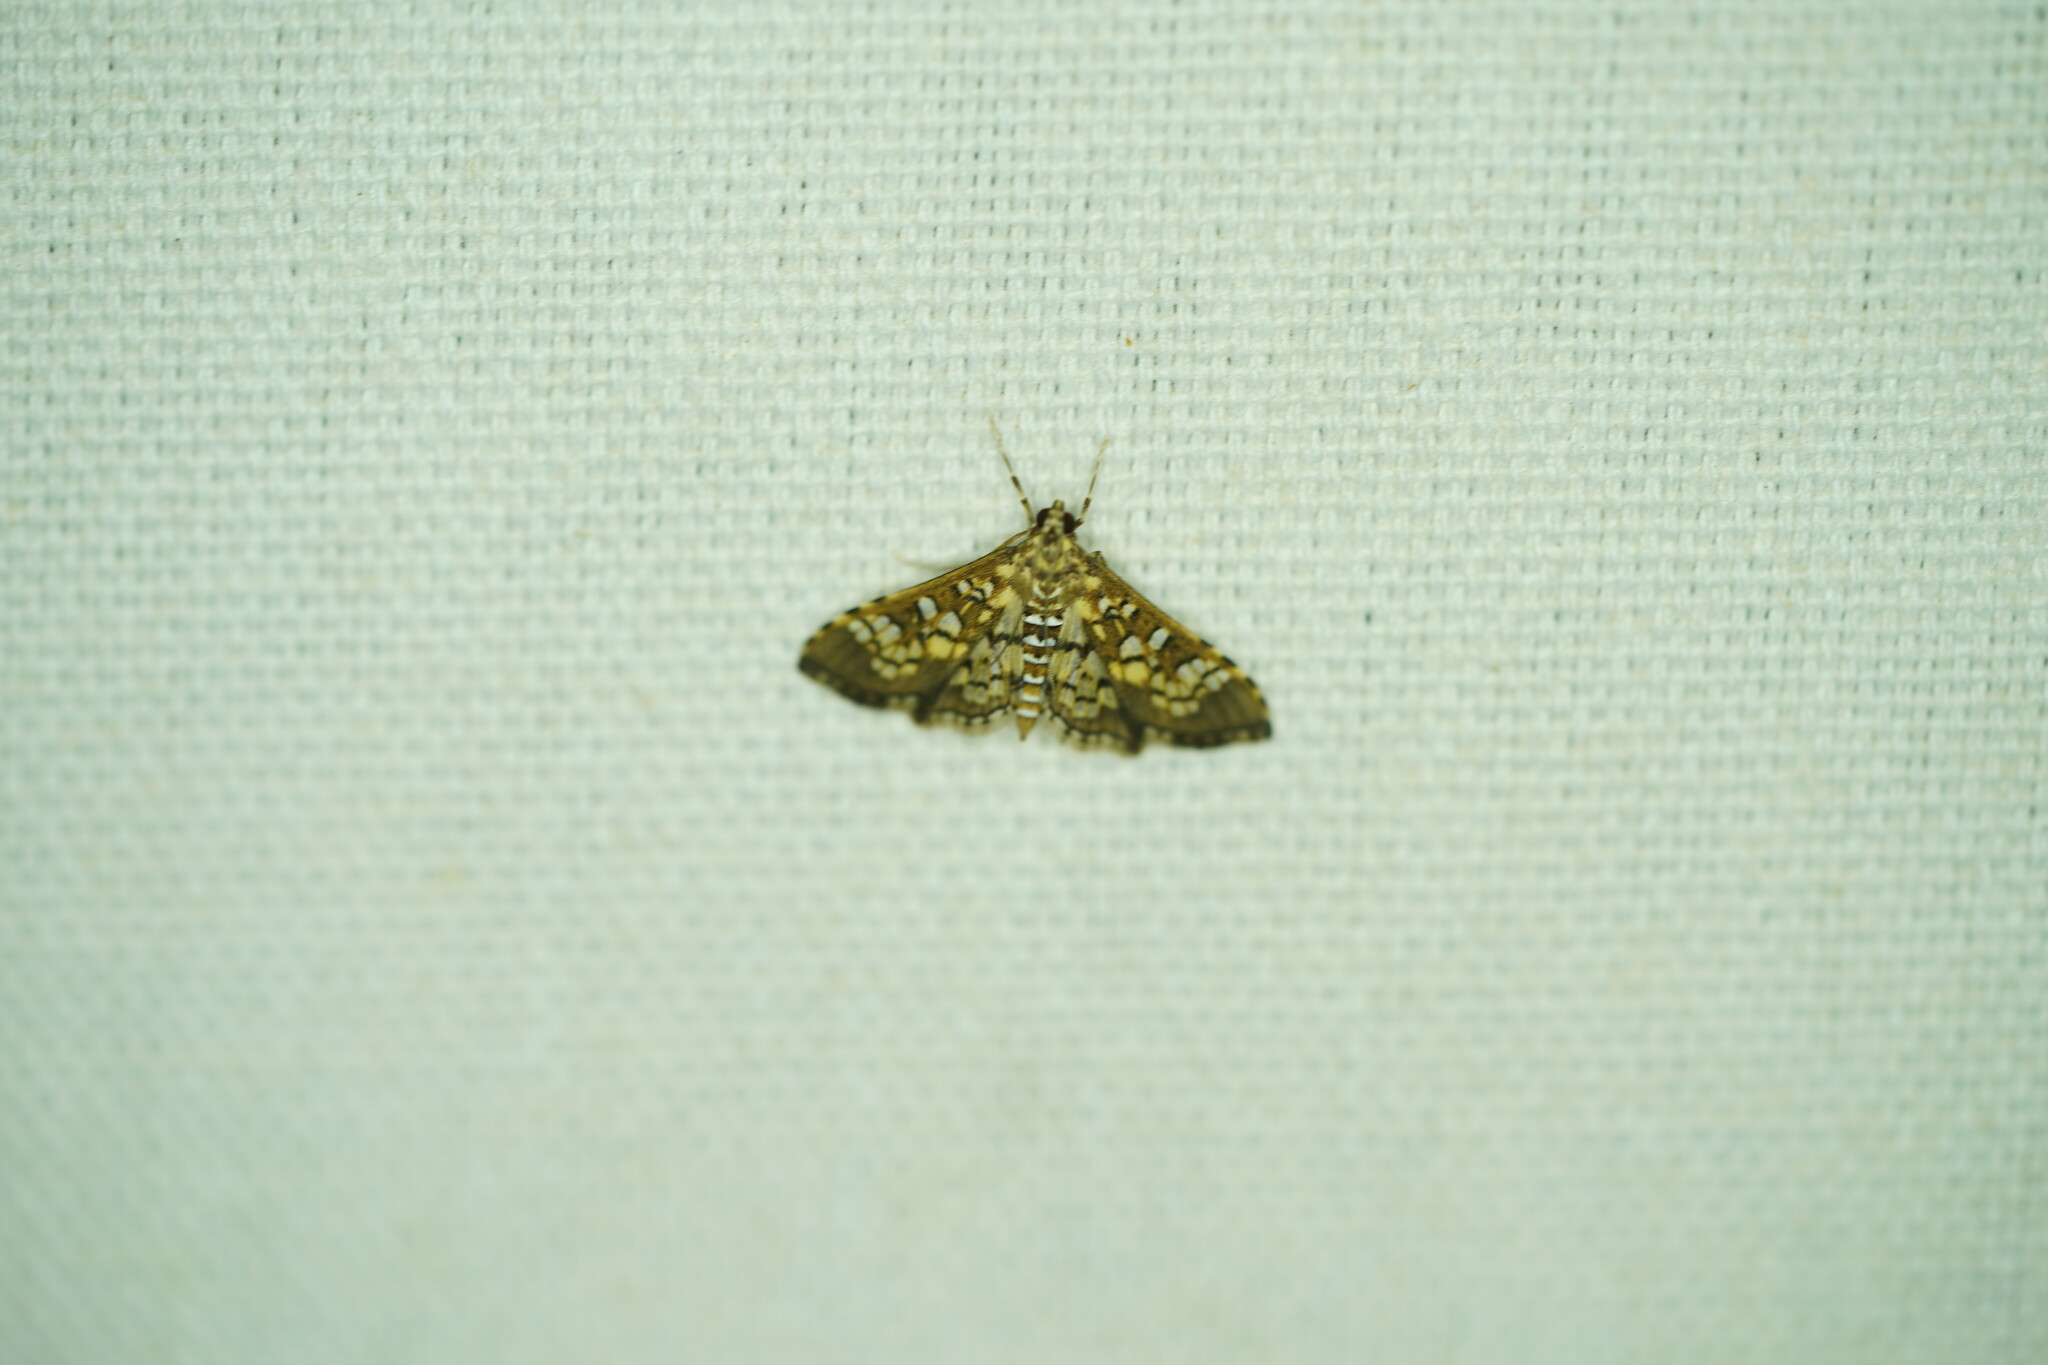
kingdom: Animalia
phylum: Arthropoda
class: Insecta
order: Lepidoptera
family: Crambidae
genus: Samea
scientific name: Samea ecclesialis
